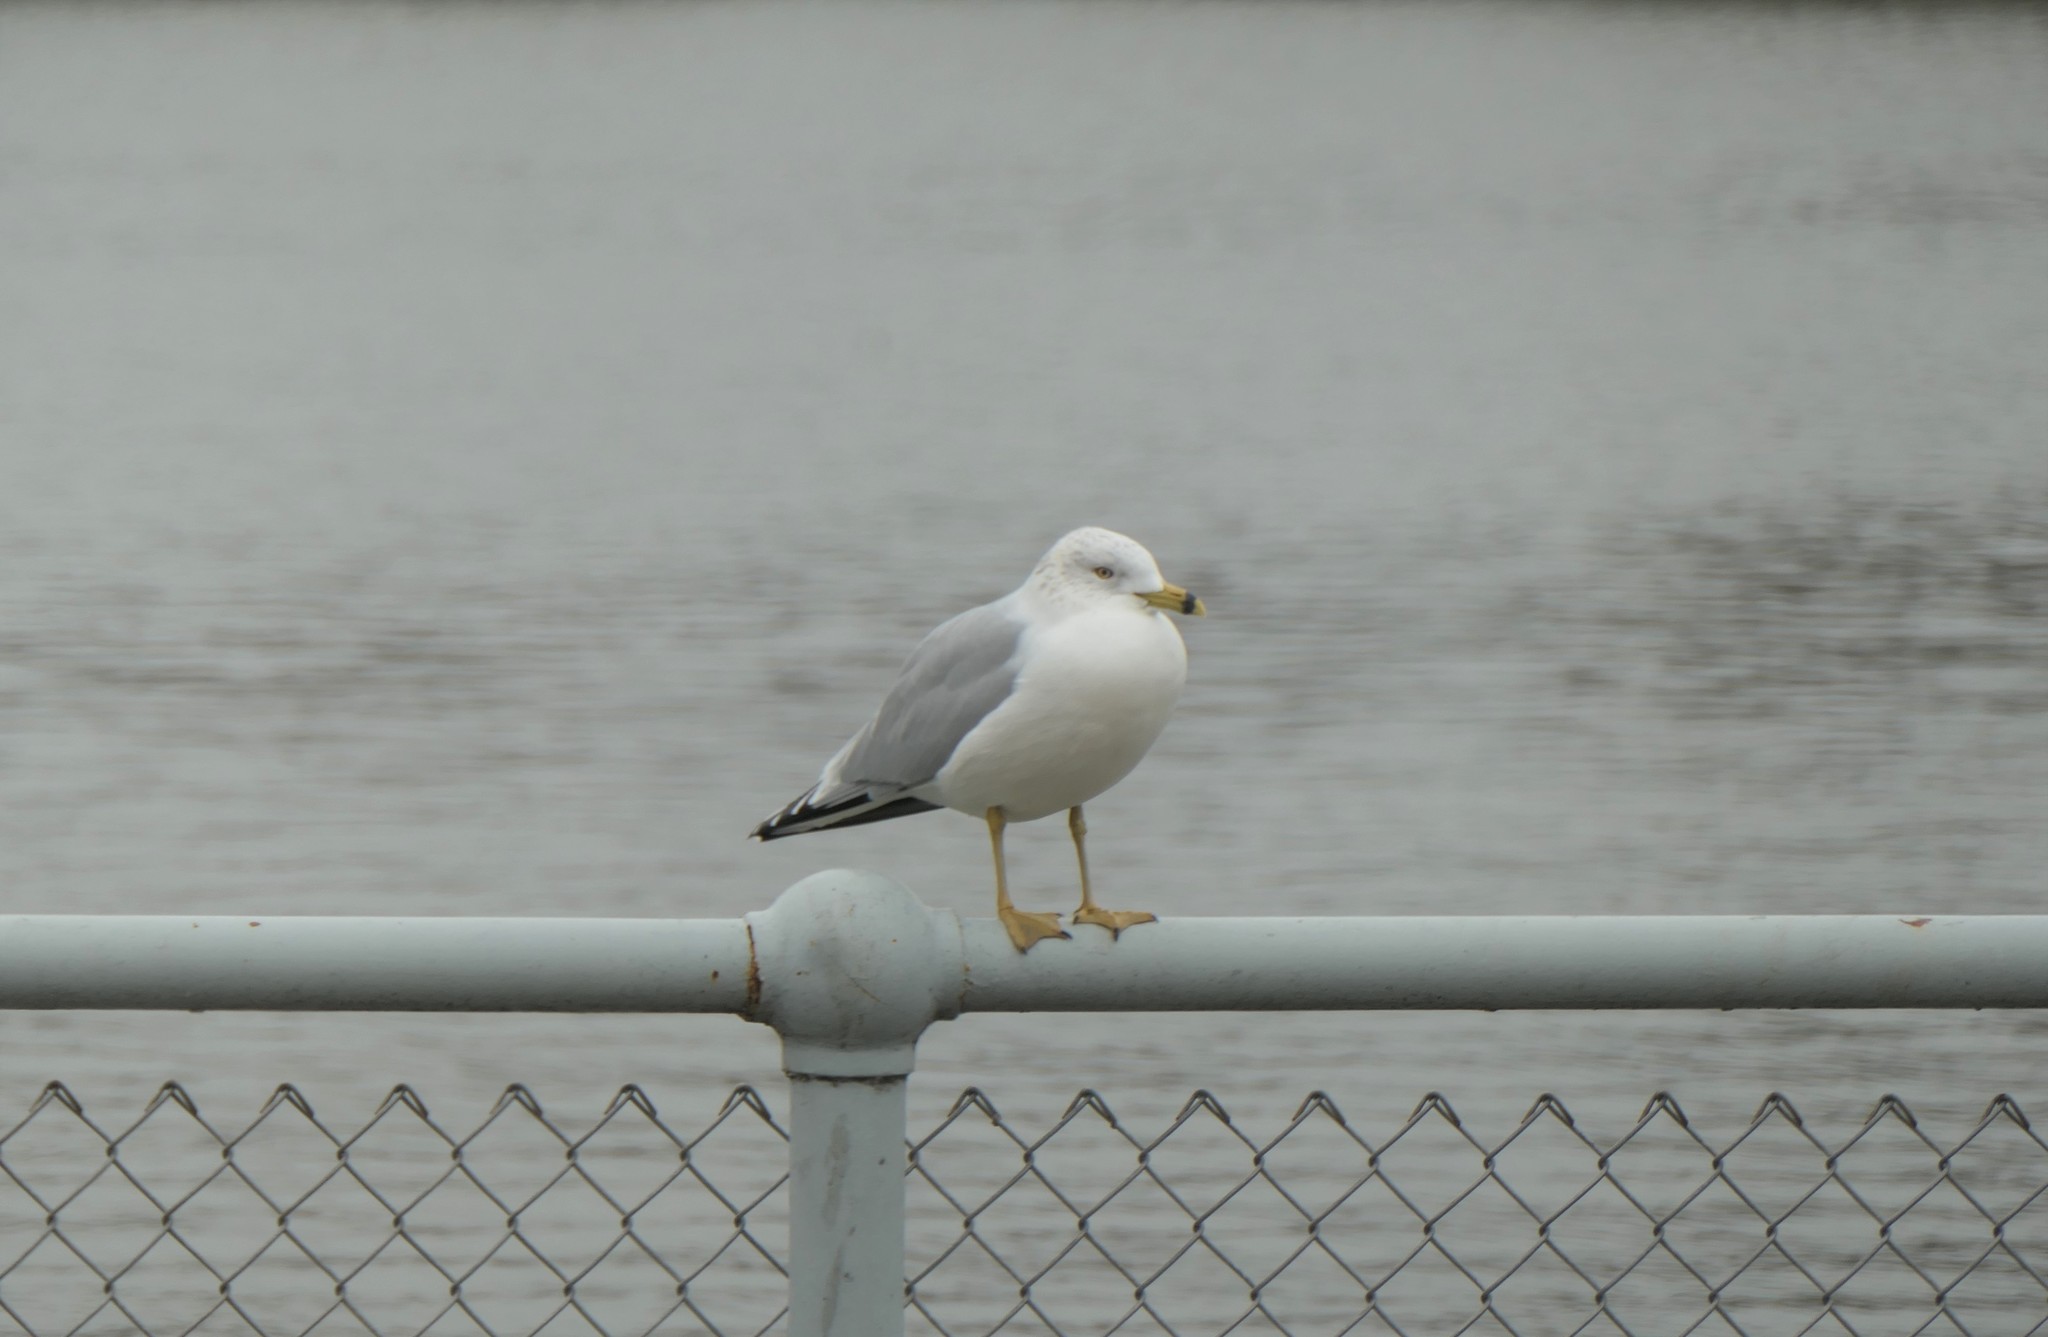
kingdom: Animalia
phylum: Chordata
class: Aves
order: Charadriiformes
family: Laridae
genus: Larus
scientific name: Larus delawarensis
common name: Ring-billed gull
